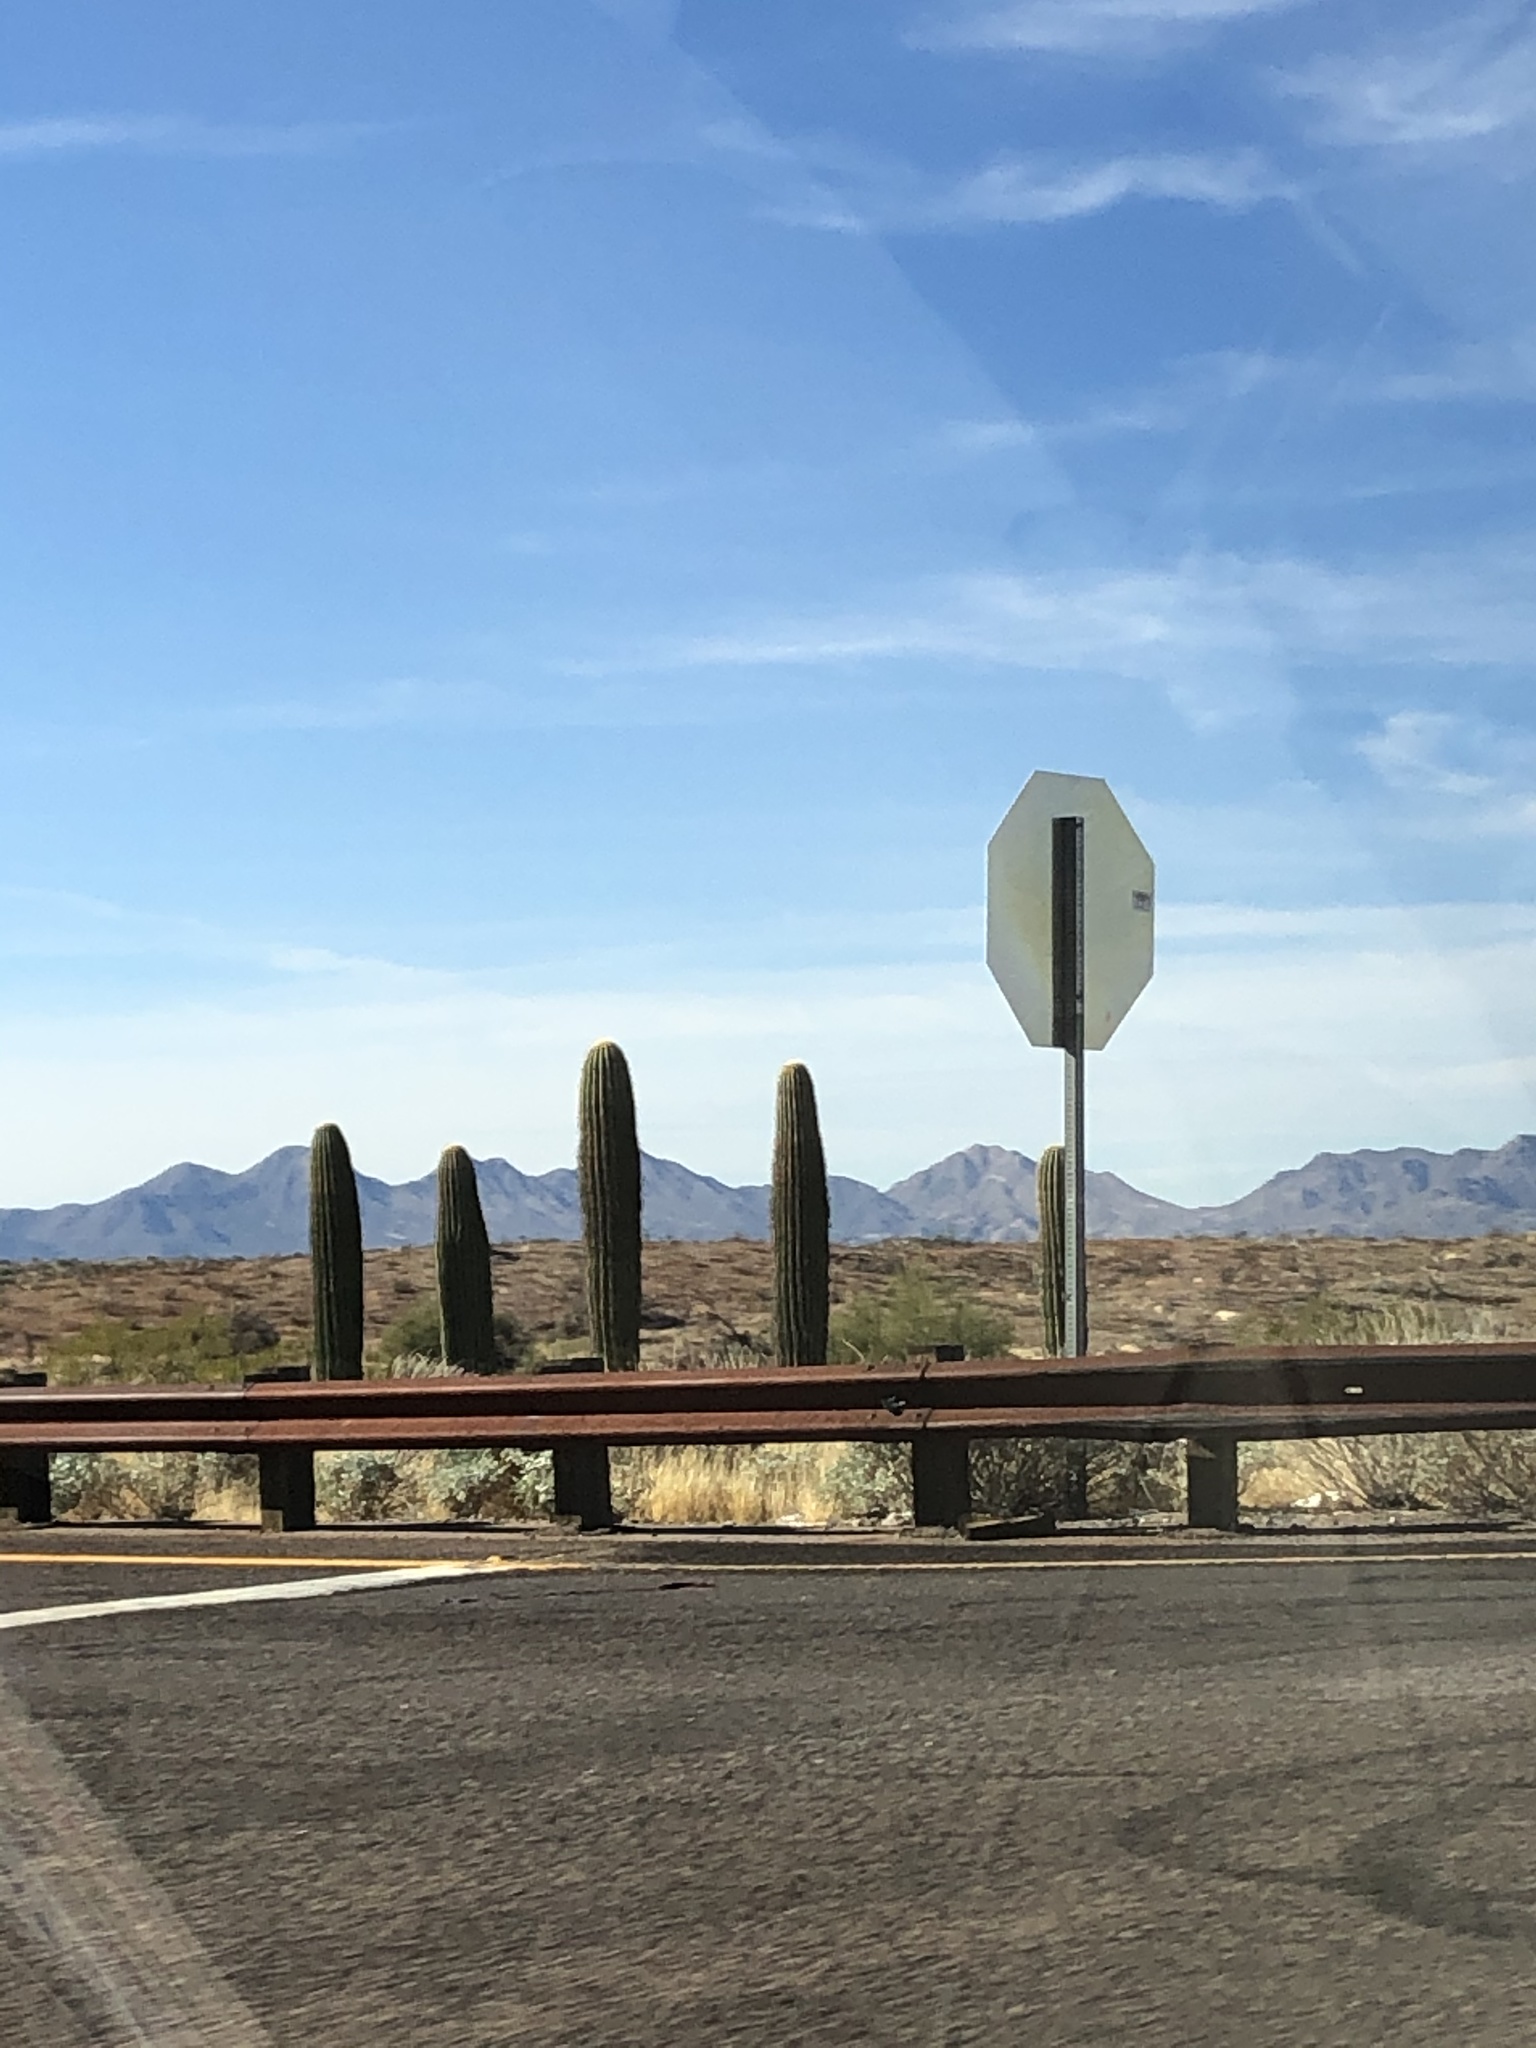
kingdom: Plantae
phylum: Tracheophyta
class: Magnoliopsida
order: Caryophyllales
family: Cactaceae
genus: Carnegiea
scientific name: Carnegiea gigantea
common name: Saguaro
